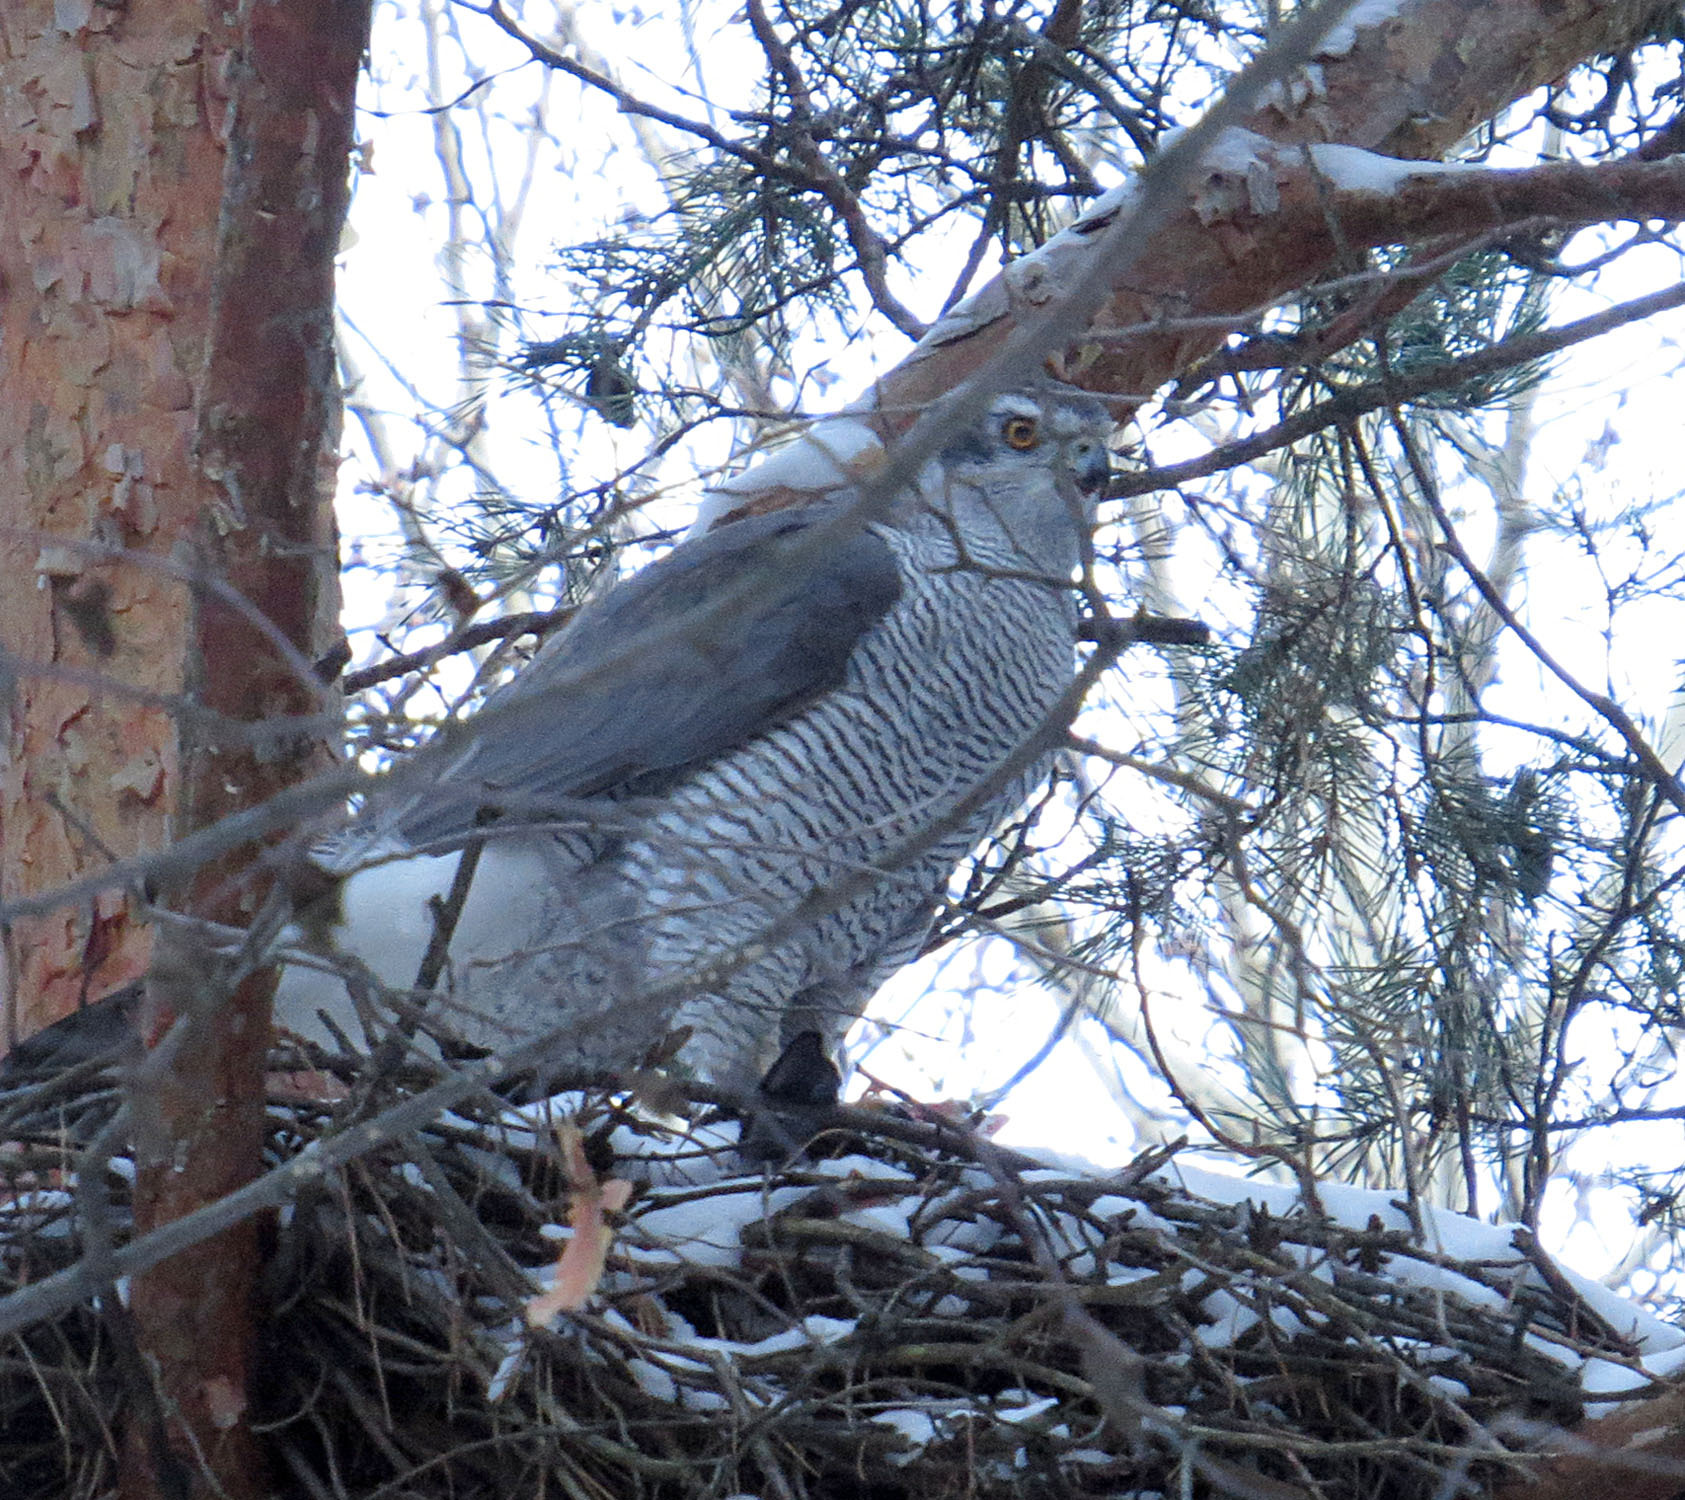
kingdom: Animalia
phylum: Chordata
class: Aves
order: Accipitriformes
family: Accipitridae
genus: Accipiter
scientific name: Accipiter gentilis
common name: Northern goshawk
